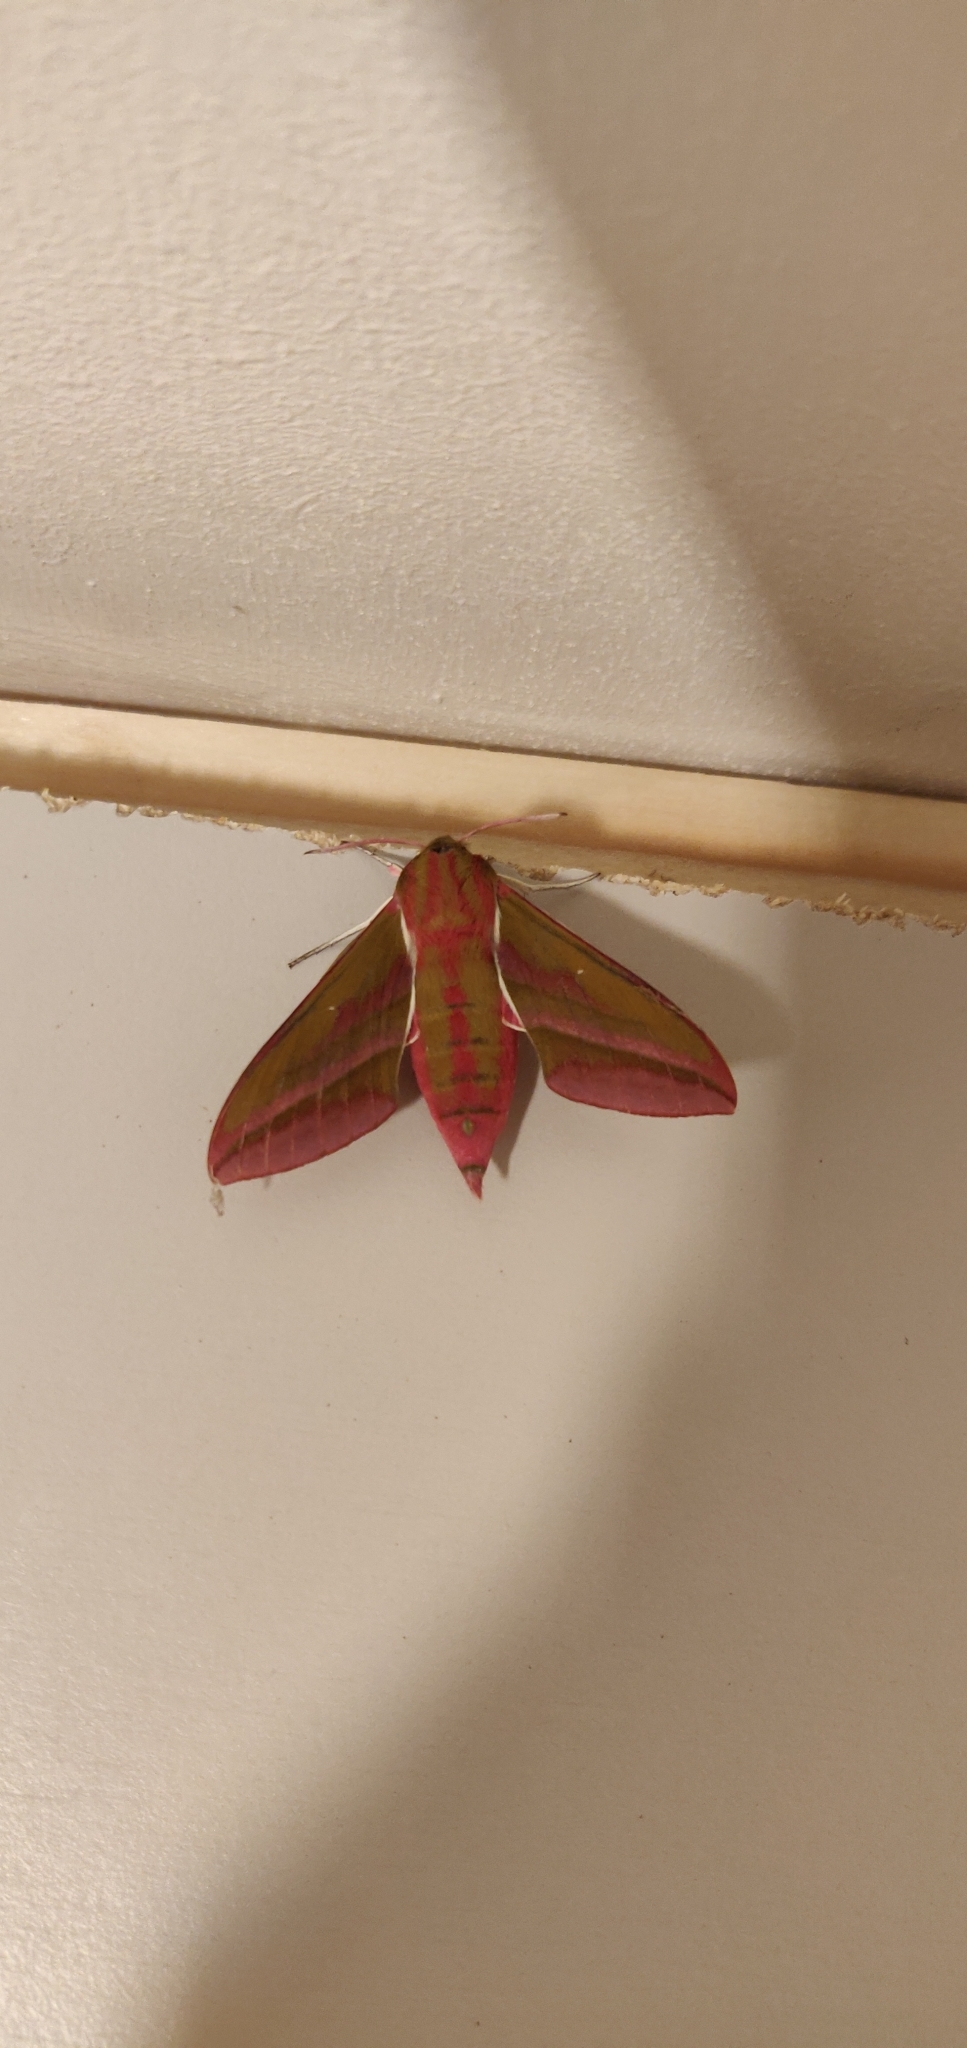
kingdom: Animalia
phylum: Arthropoda
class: Insecta
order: Lepidoptera
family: Sphingidae
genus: Deilephila
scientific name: Deilephila elpenor
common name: Elephant hawk-moth
